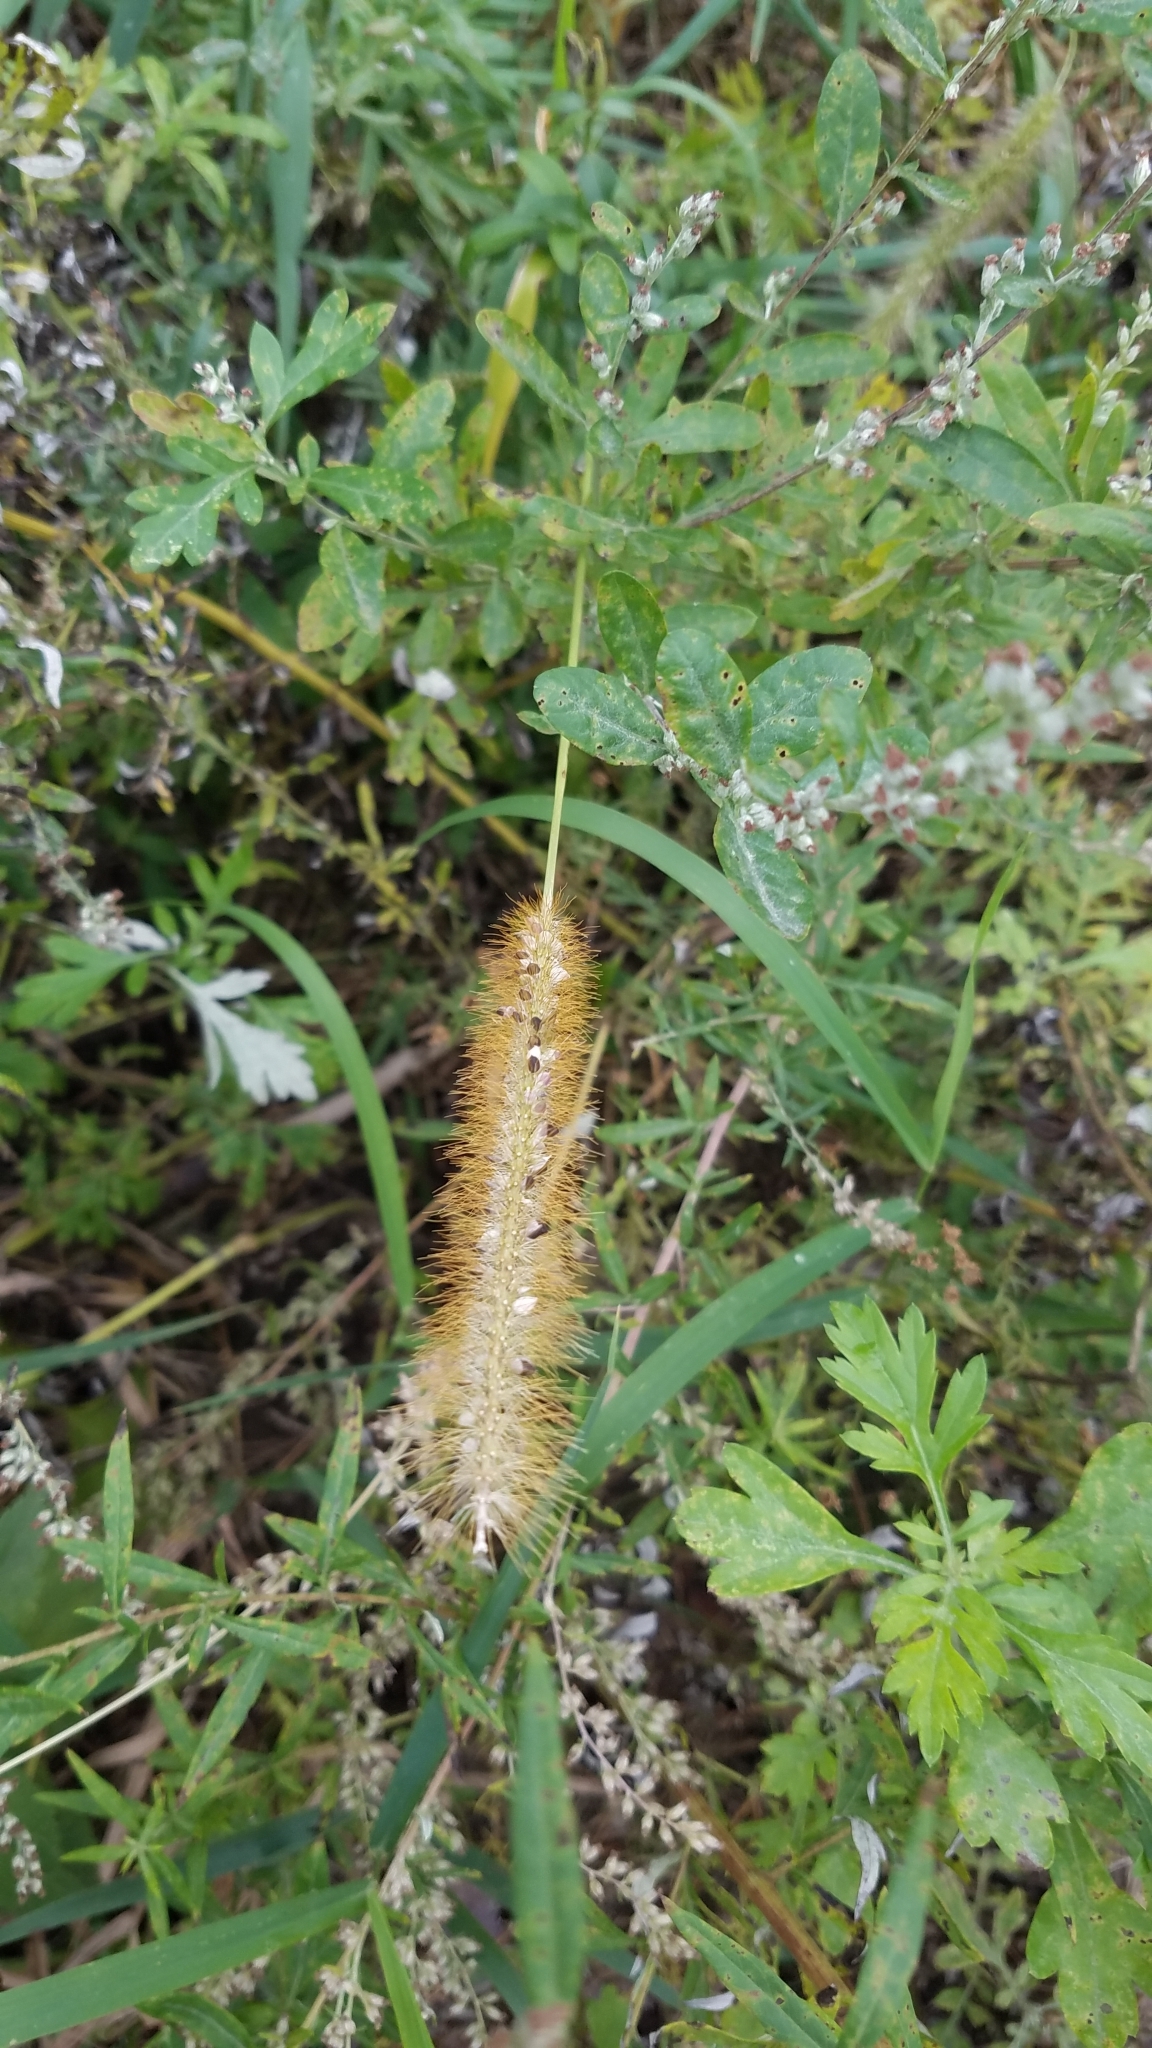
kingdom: Plantae
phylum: Tracheophyta
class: Liliopsida
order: Poales
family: Poaceae
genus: Setaria
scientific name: Setaria pumila
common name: Yellow bristle-grass
